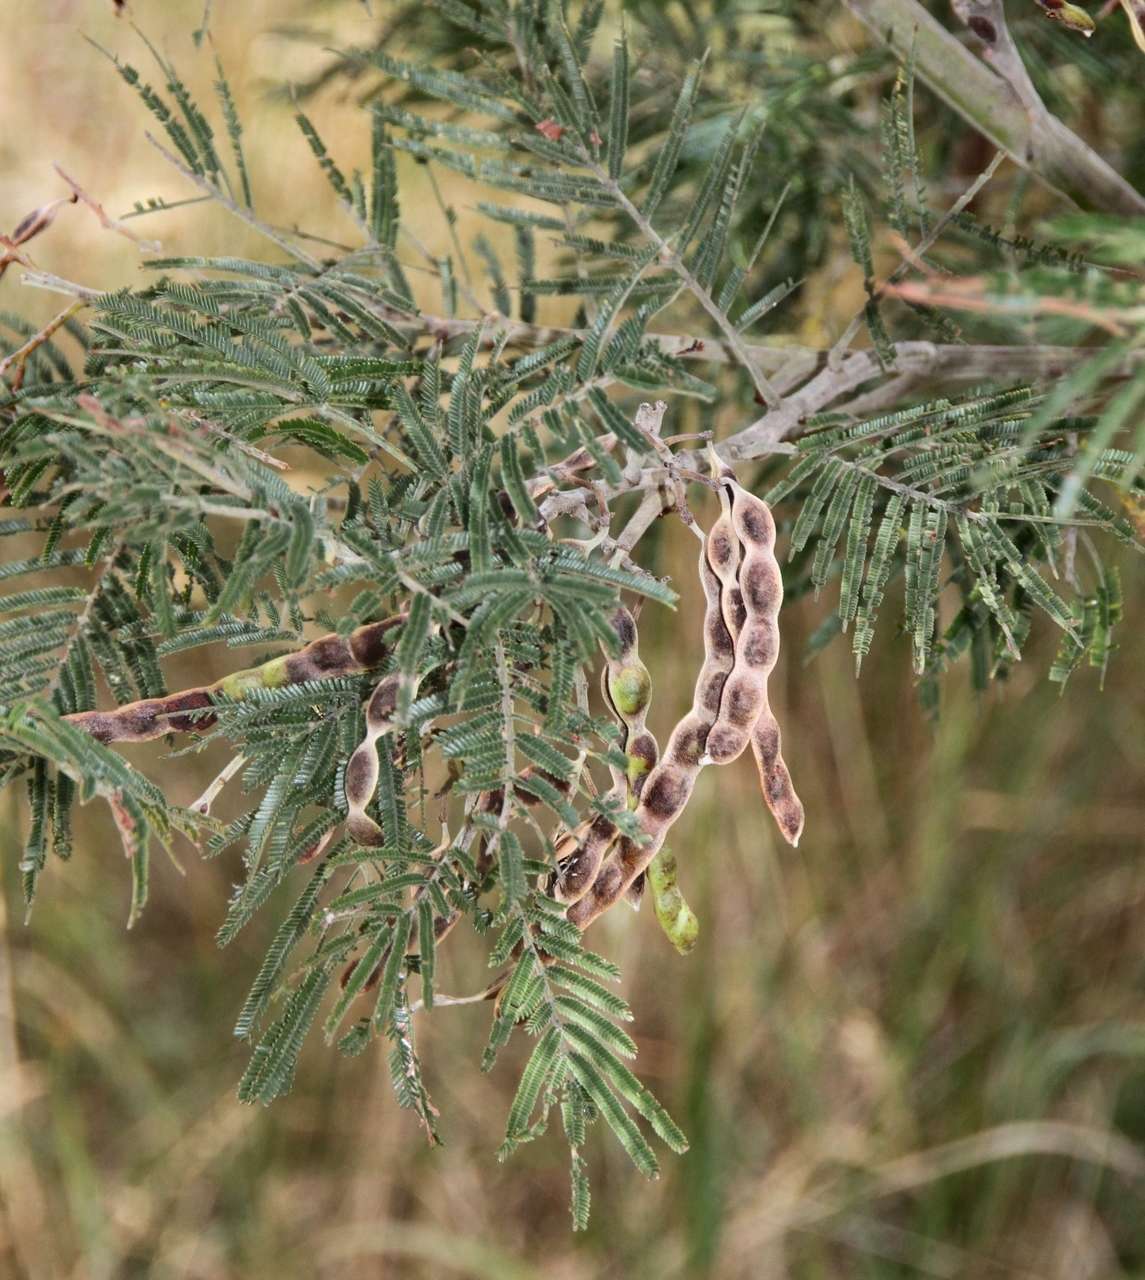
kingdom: Plantae
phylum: Tracheophyta
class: Magnoliopsida
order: Fabales
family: Fabaceae
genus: Acacia
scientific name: Acacia mearnsii
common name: Black wattle
